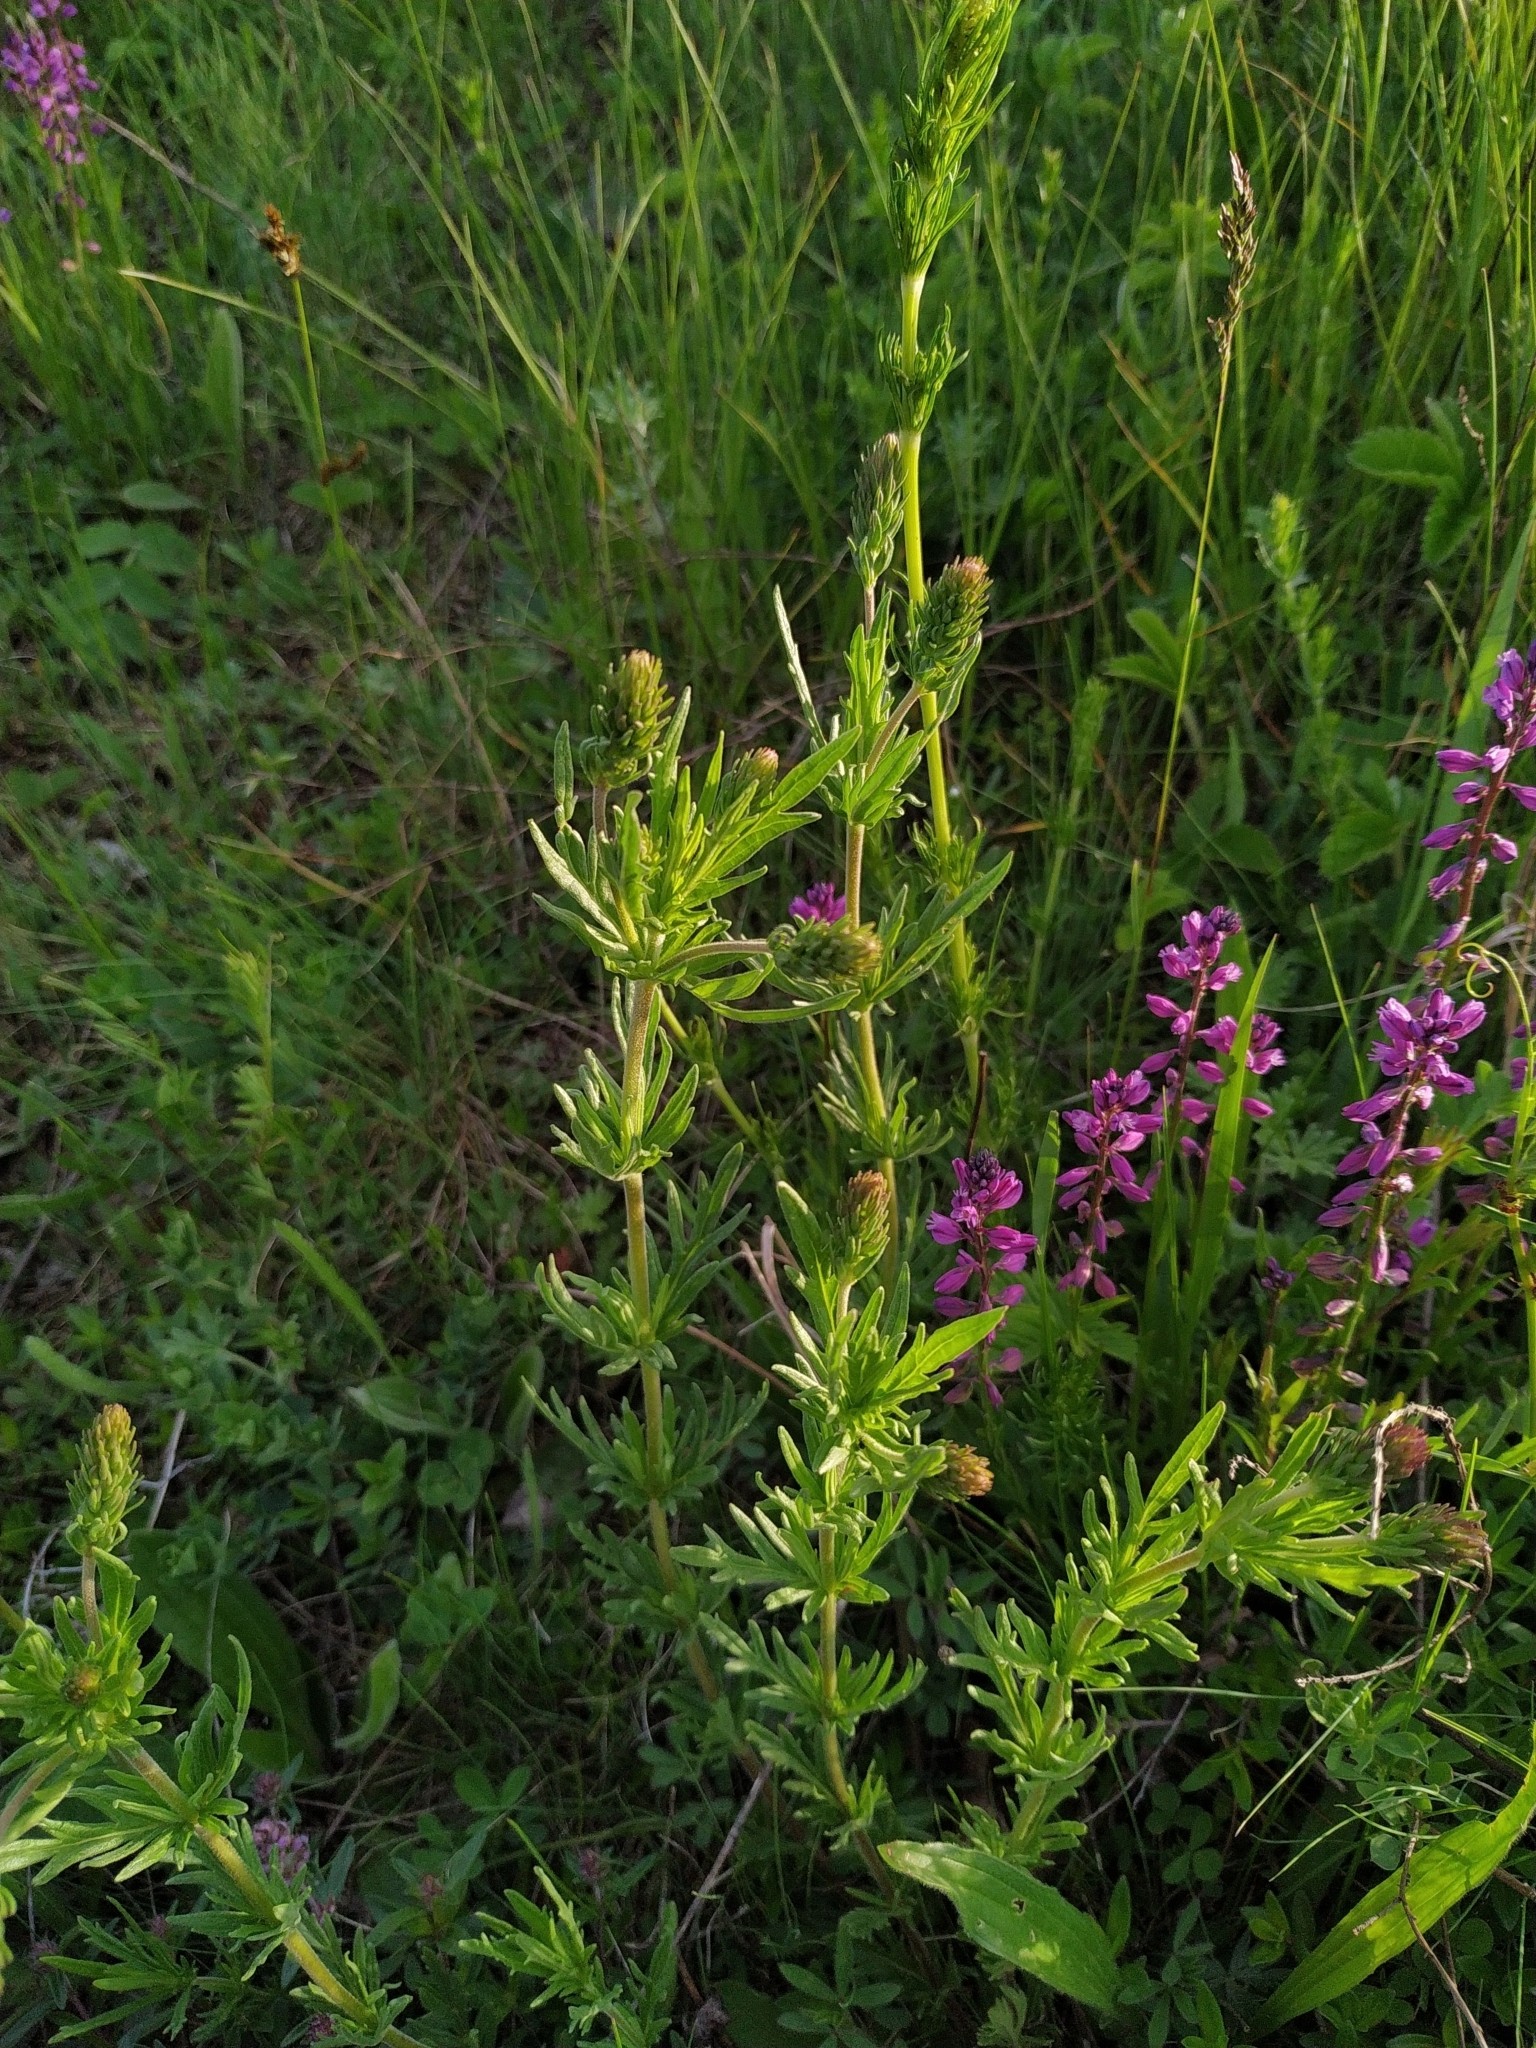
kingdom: Plantae
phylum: Tracheophyta
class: Magnoliopsida
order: Lamiales
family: Plantaginaceae
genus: Veronica
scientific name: Veronica austriaca
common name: Large speedwell
